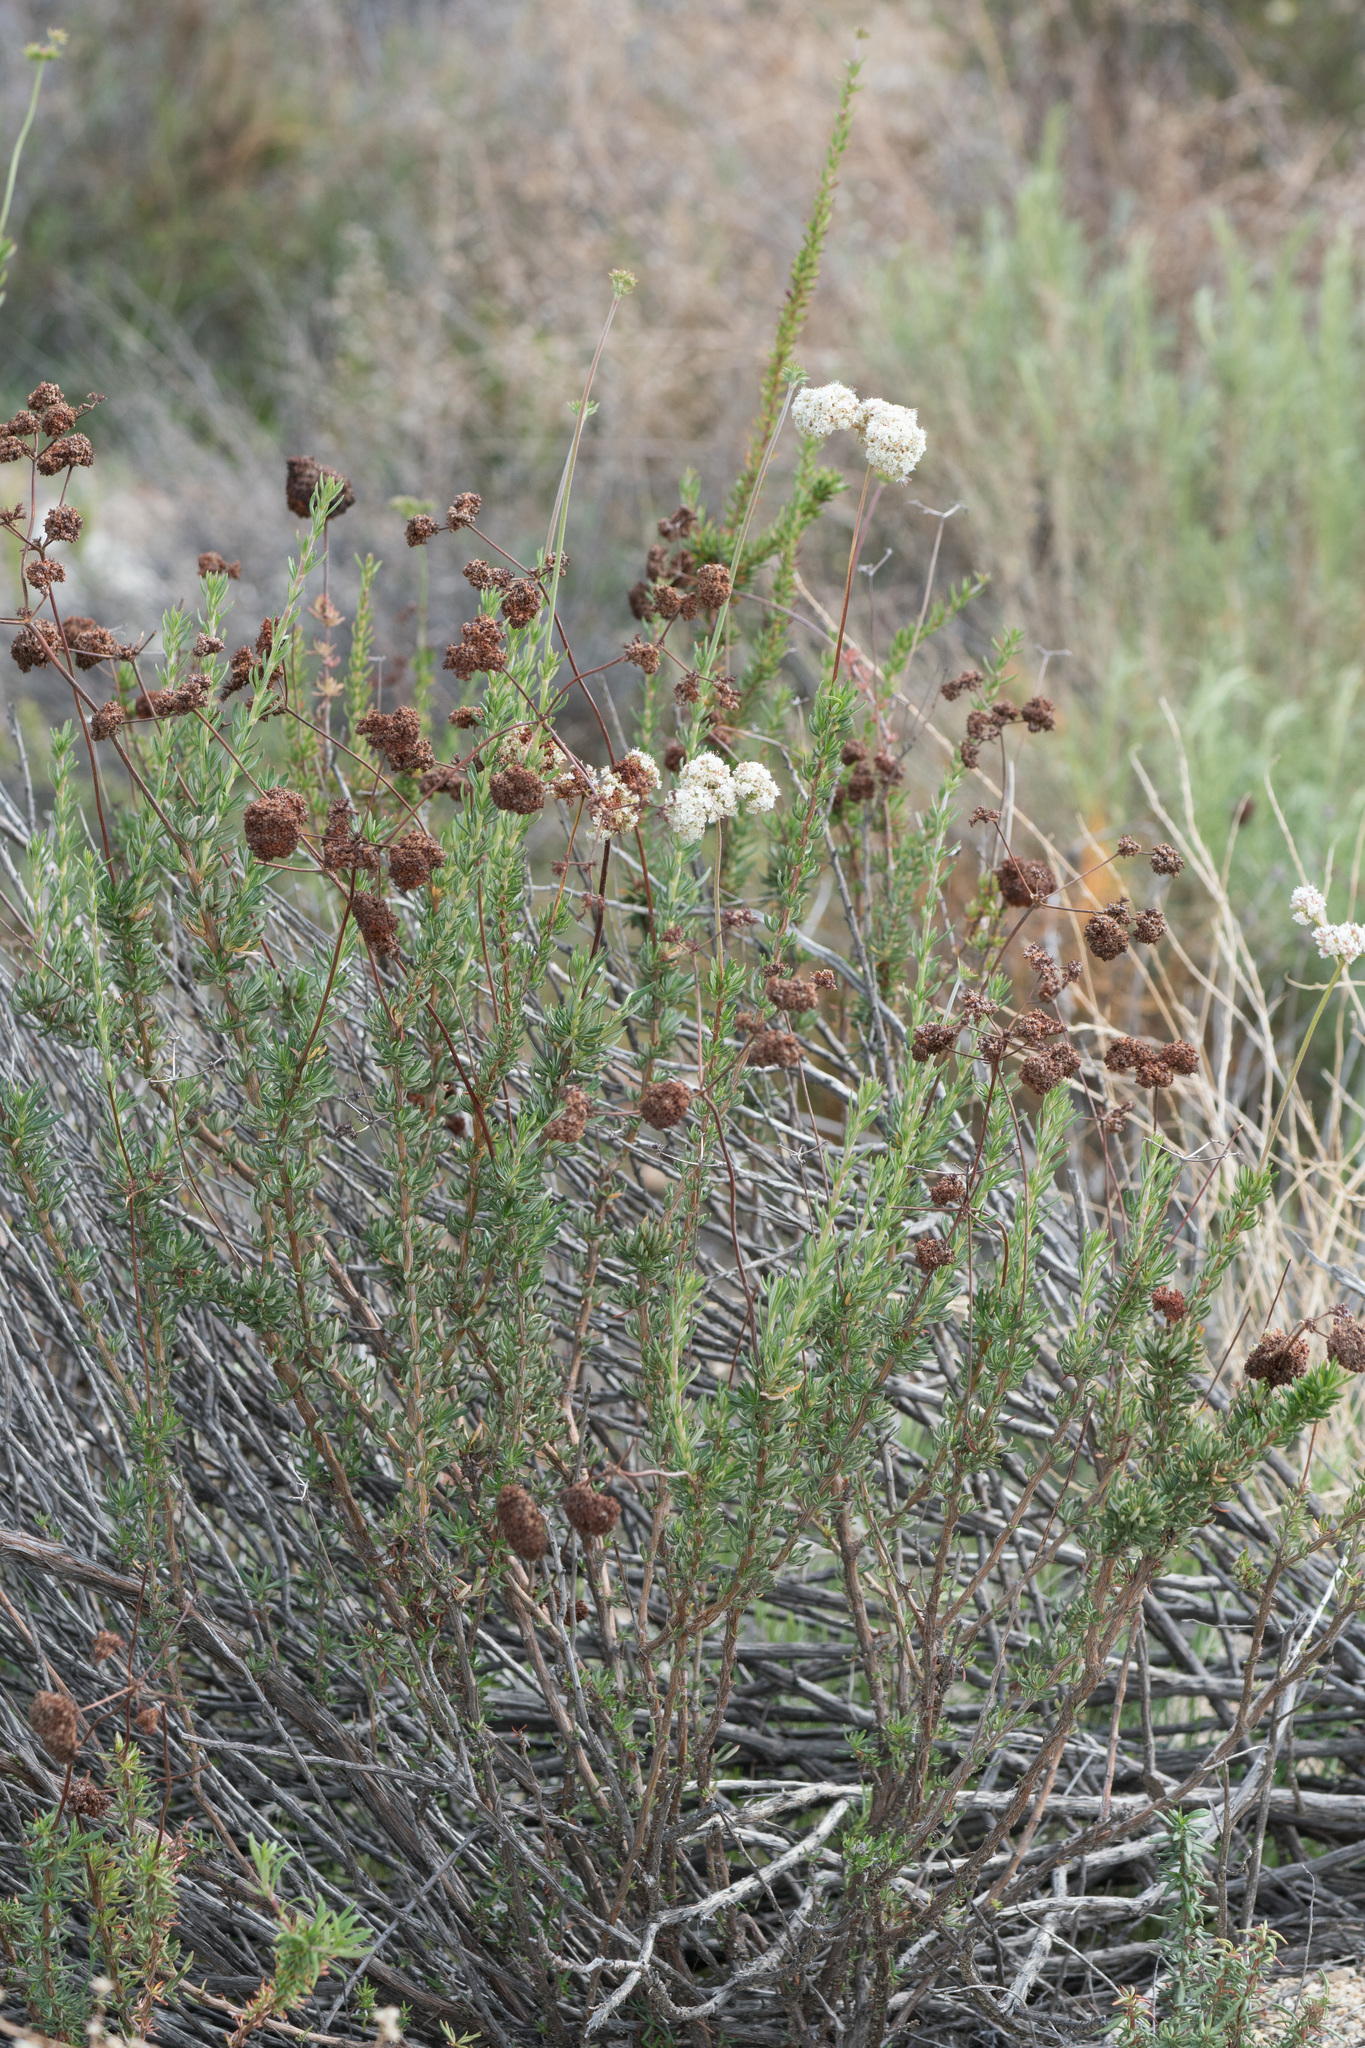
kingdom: Plantae
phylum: Tracheophyta
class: Magnoliopsida
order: Caryophyllales
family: Polygonaceae
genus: Eriogonum
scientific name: Eriogonum fasciculatum
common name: California wild buckwheat
